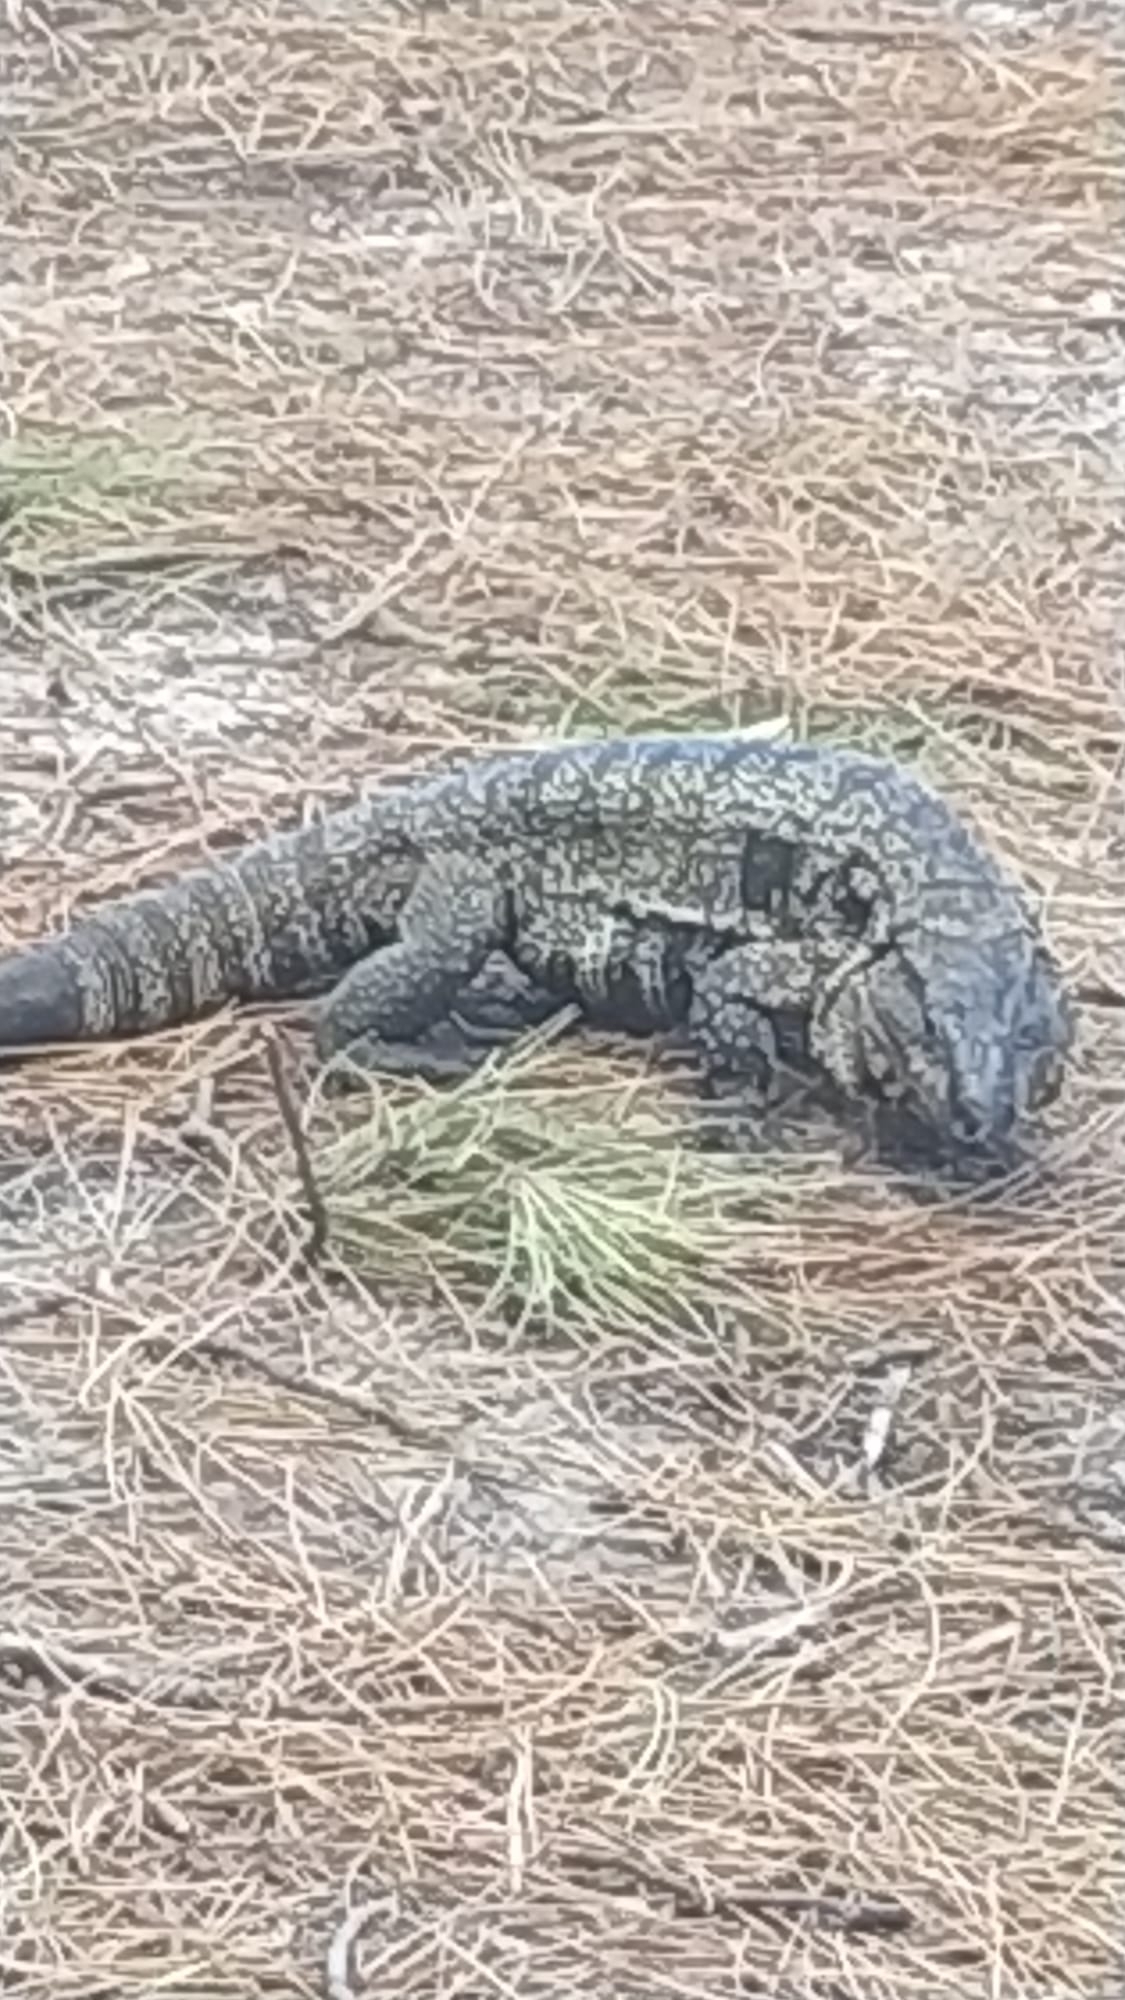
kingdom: Animalia
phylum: Chordata
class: Squamata
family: Teiidae
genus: Salvator
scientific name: Salvator merianae
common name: Argentine black and white tegu
